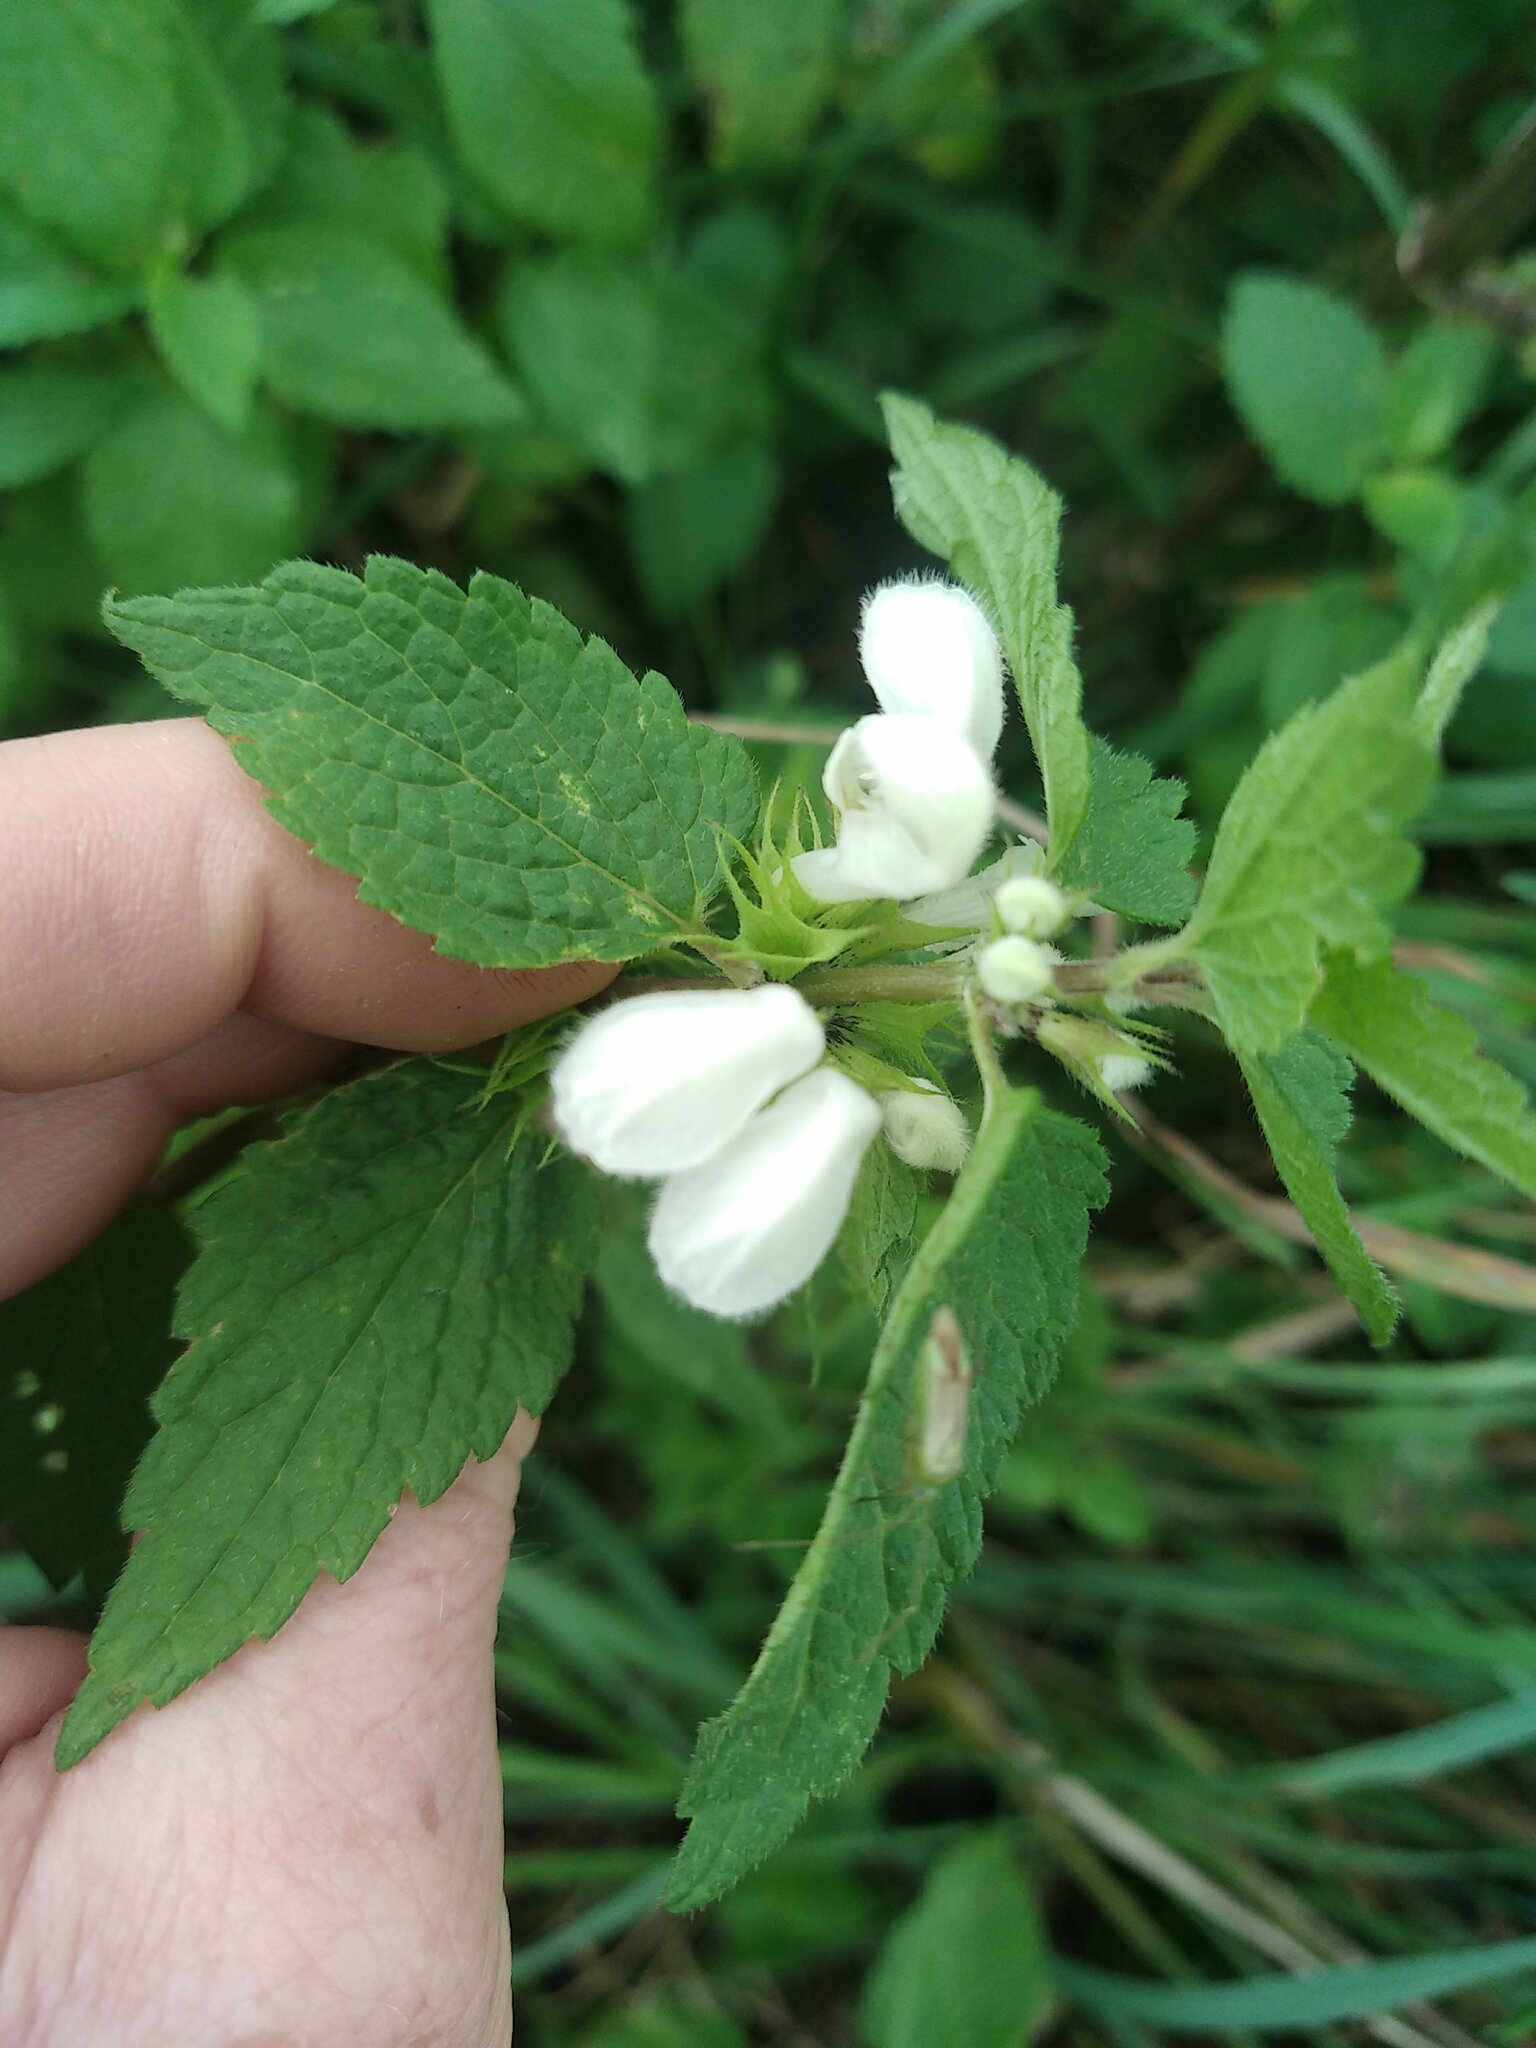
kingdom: Plantae
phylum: Tracheophyta
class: Magnoliopsida
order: Lamiales
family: Lamiaceae
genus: Lamium
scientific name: Lamium album
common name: White dead-nettle
